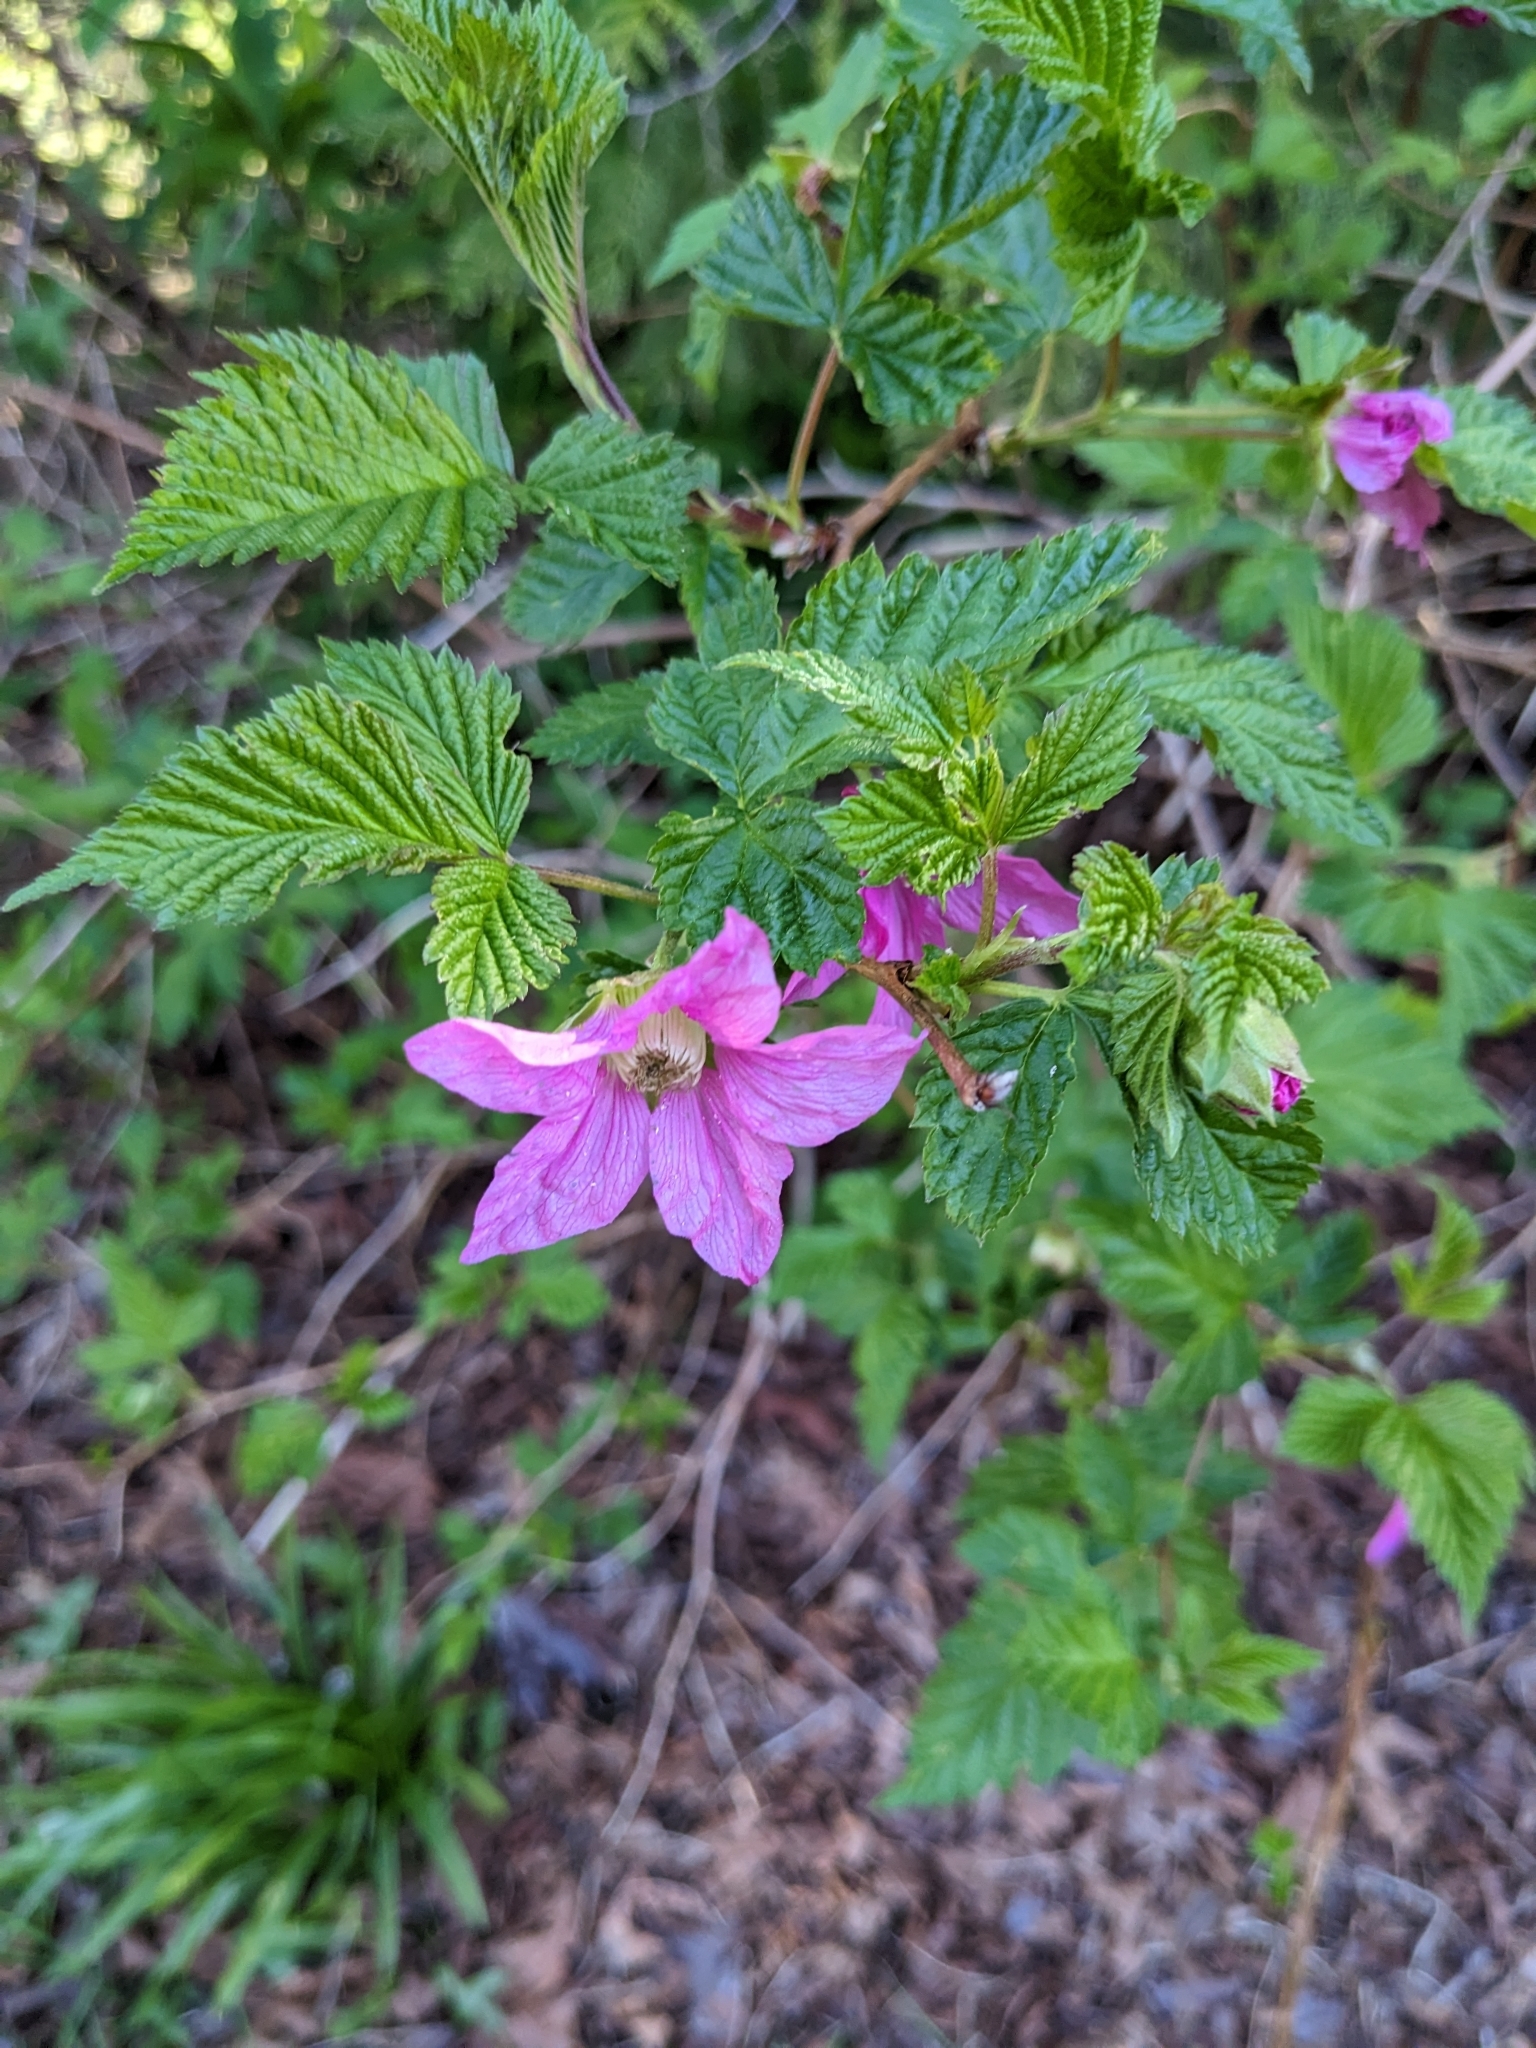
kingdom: Plantae
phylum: Tracheophyta
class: Magnoliopsida
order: Rosales
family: Rosaceae
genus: Rubus
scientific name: Rubus spectabilis
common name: Salmonberry
